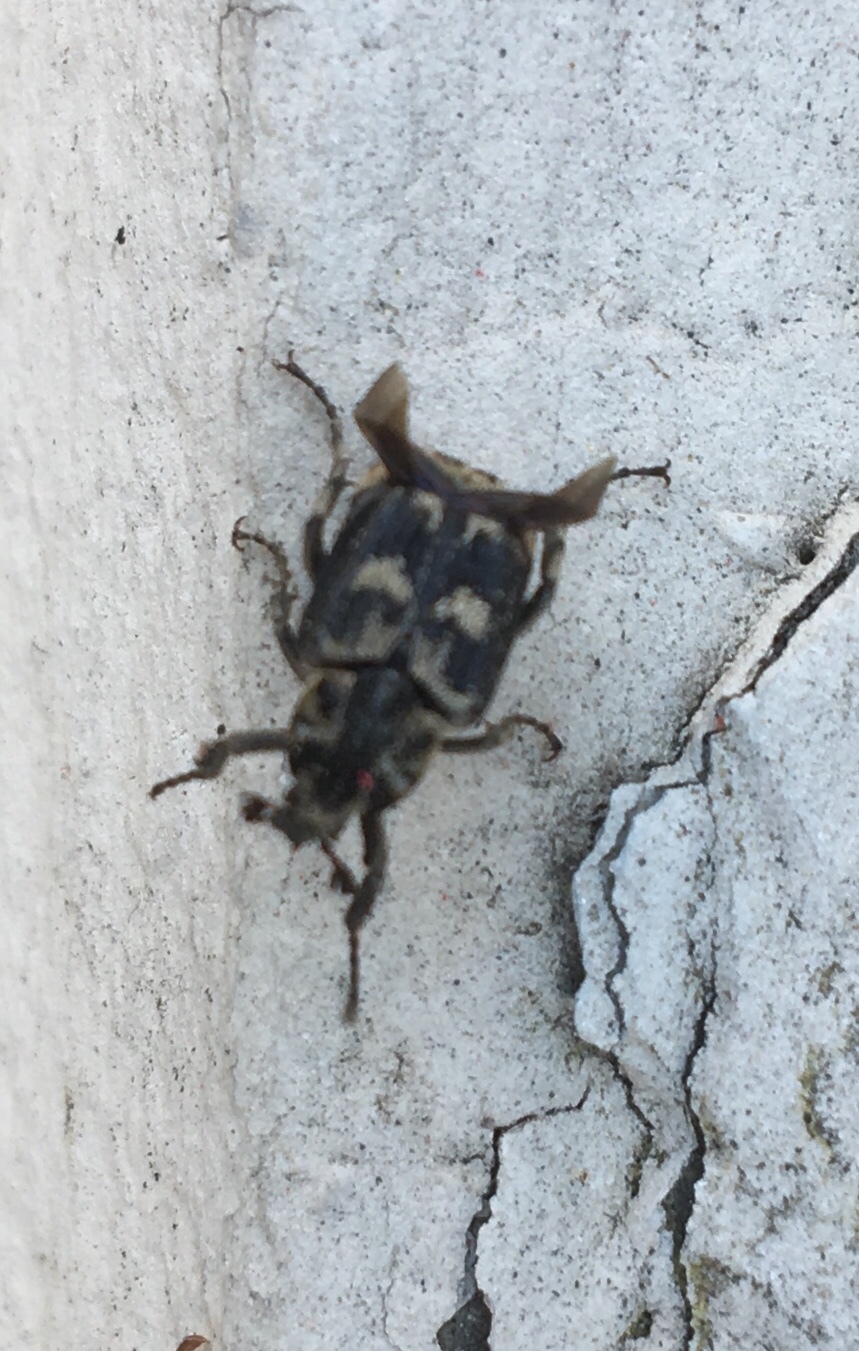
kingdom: Animalia
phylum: Arthropoda
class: Insecta
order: Coleoptera
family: Scarabaeidae
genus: Valgus
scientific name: Valgus hemipterus
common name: Bug flower chafer
